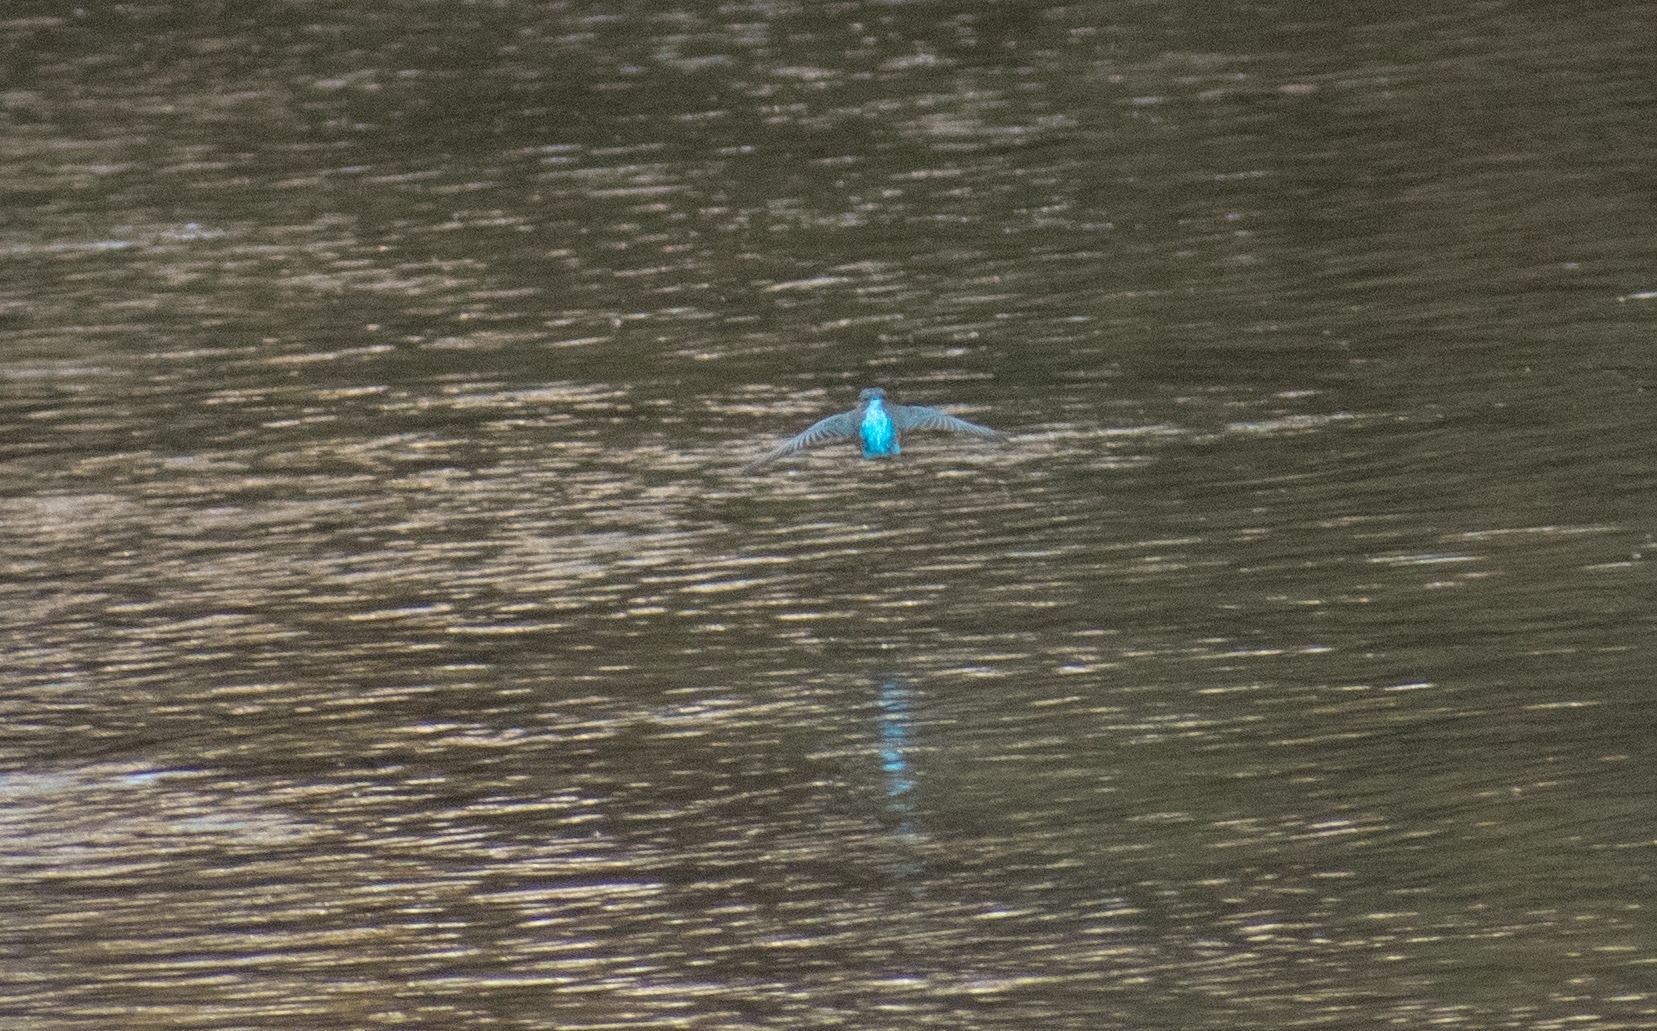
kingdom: Animalia
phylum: Chordata
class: Aves
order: Coraciiformes
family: Alcedinidae
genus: Alcedo
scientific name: Alcedo atthis
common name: Common kingfisher
